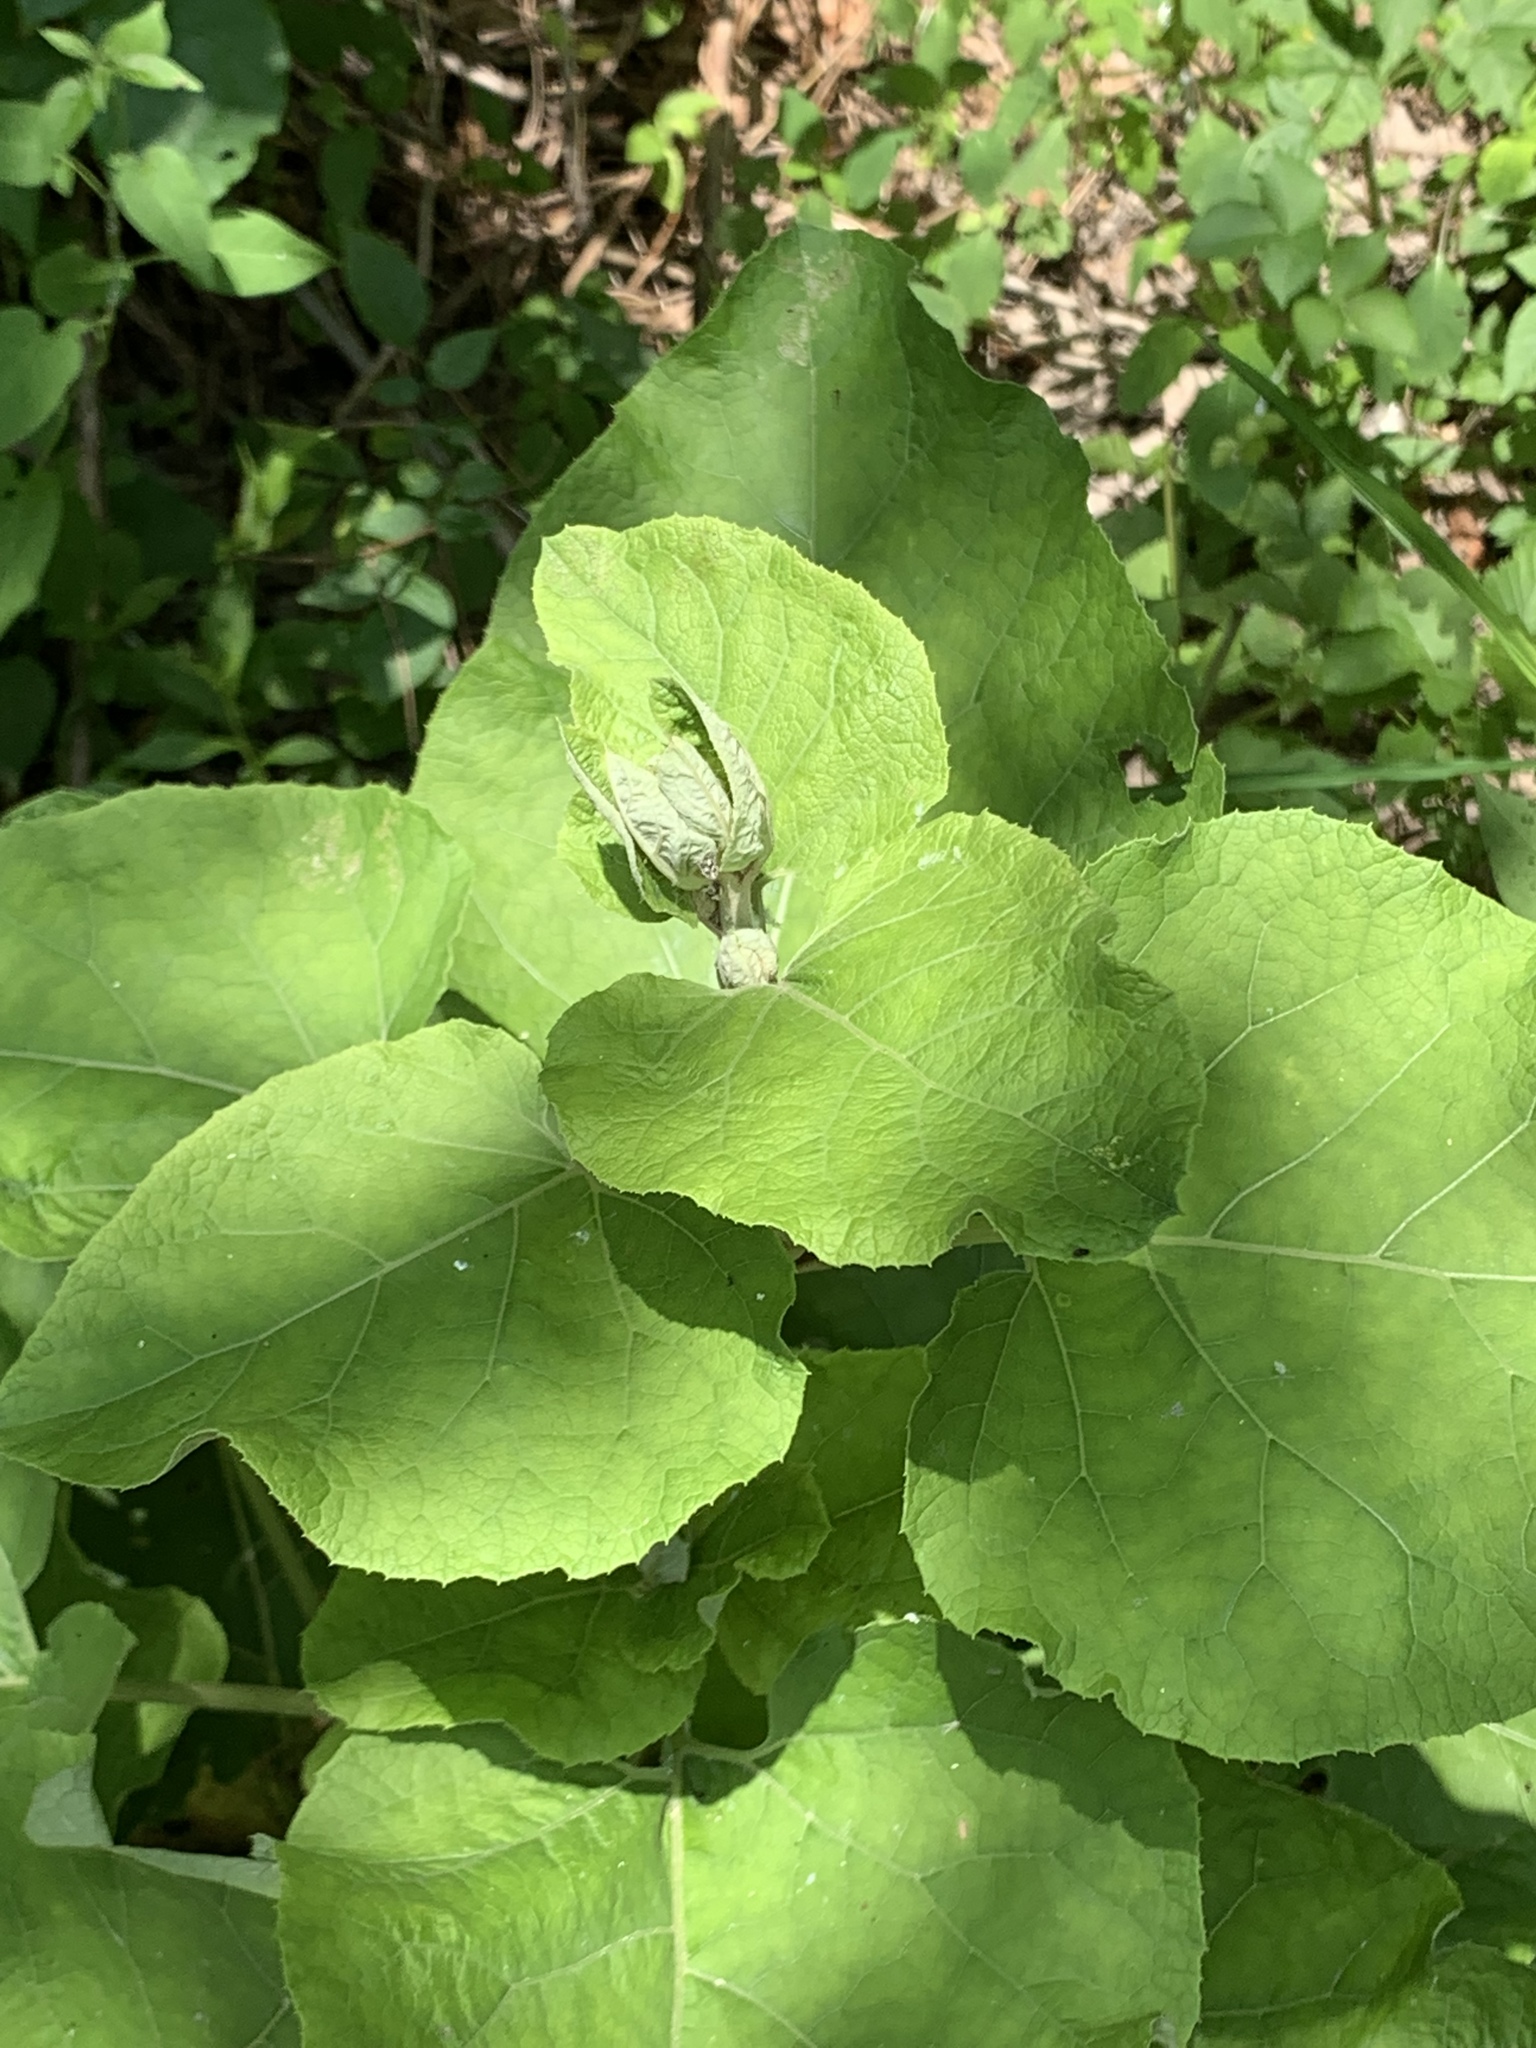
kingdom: Plantae
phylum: Tracheophyta
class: Magnoliopsida
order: Asterales
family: Asteraceae
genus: Arctium
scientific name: Arctium
